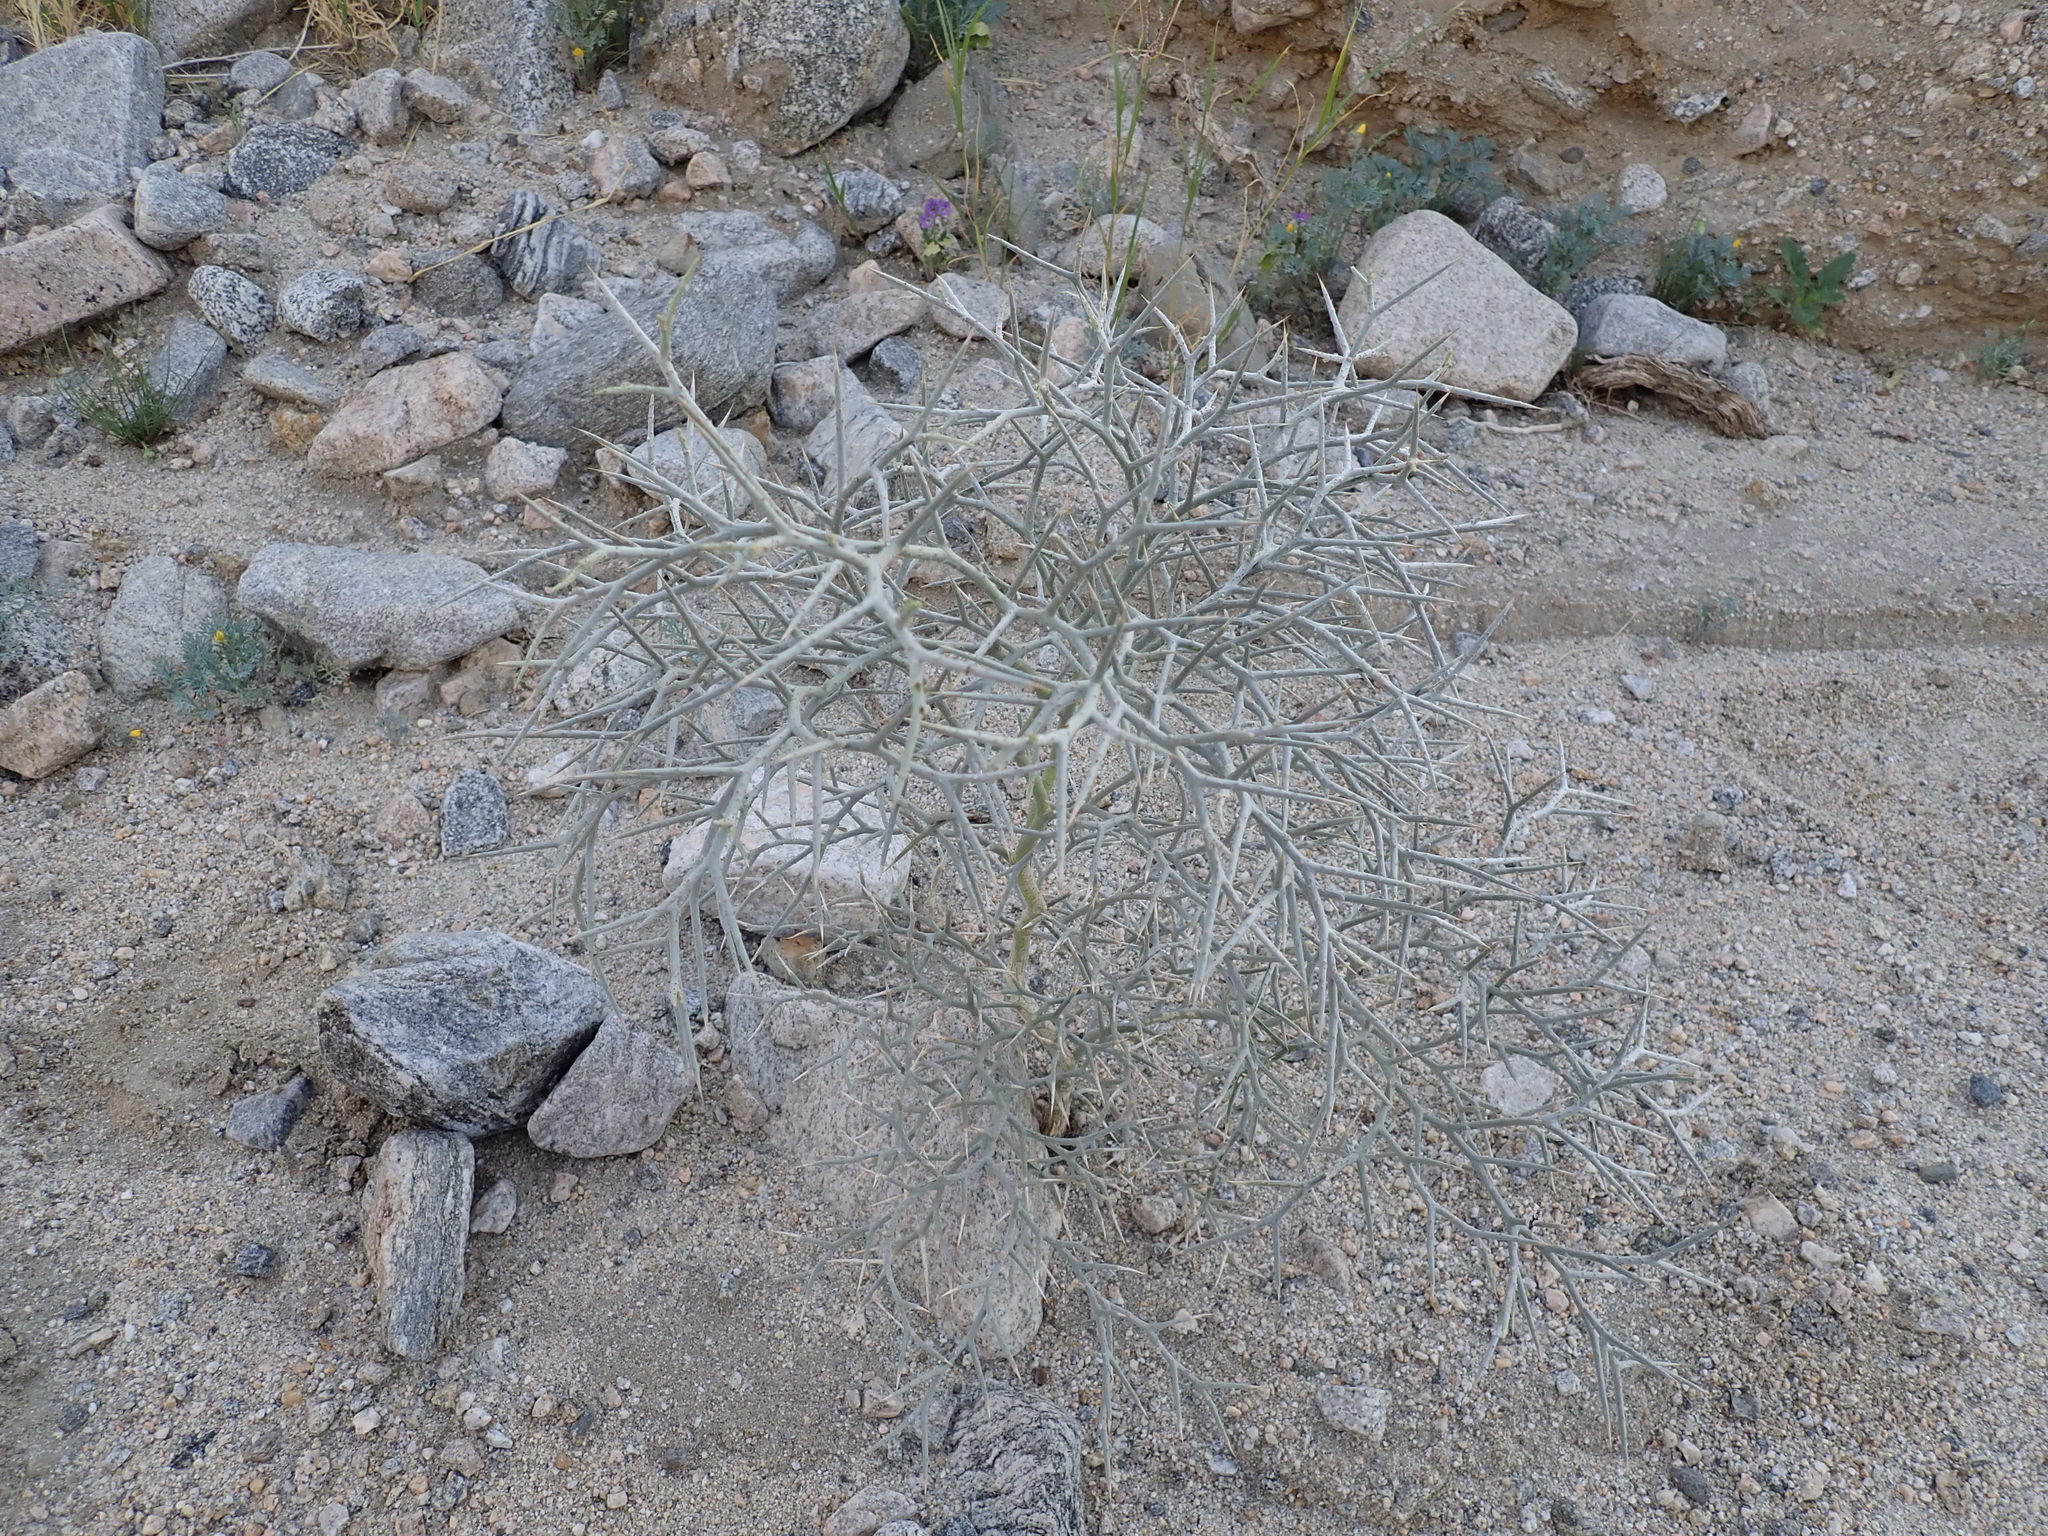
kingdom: Plantae
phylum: Tracheophyta
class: Magnoliopsida
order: Fabales
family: Fabaceae
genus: Psorothamnus
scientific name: Psorothamnus spinosus
